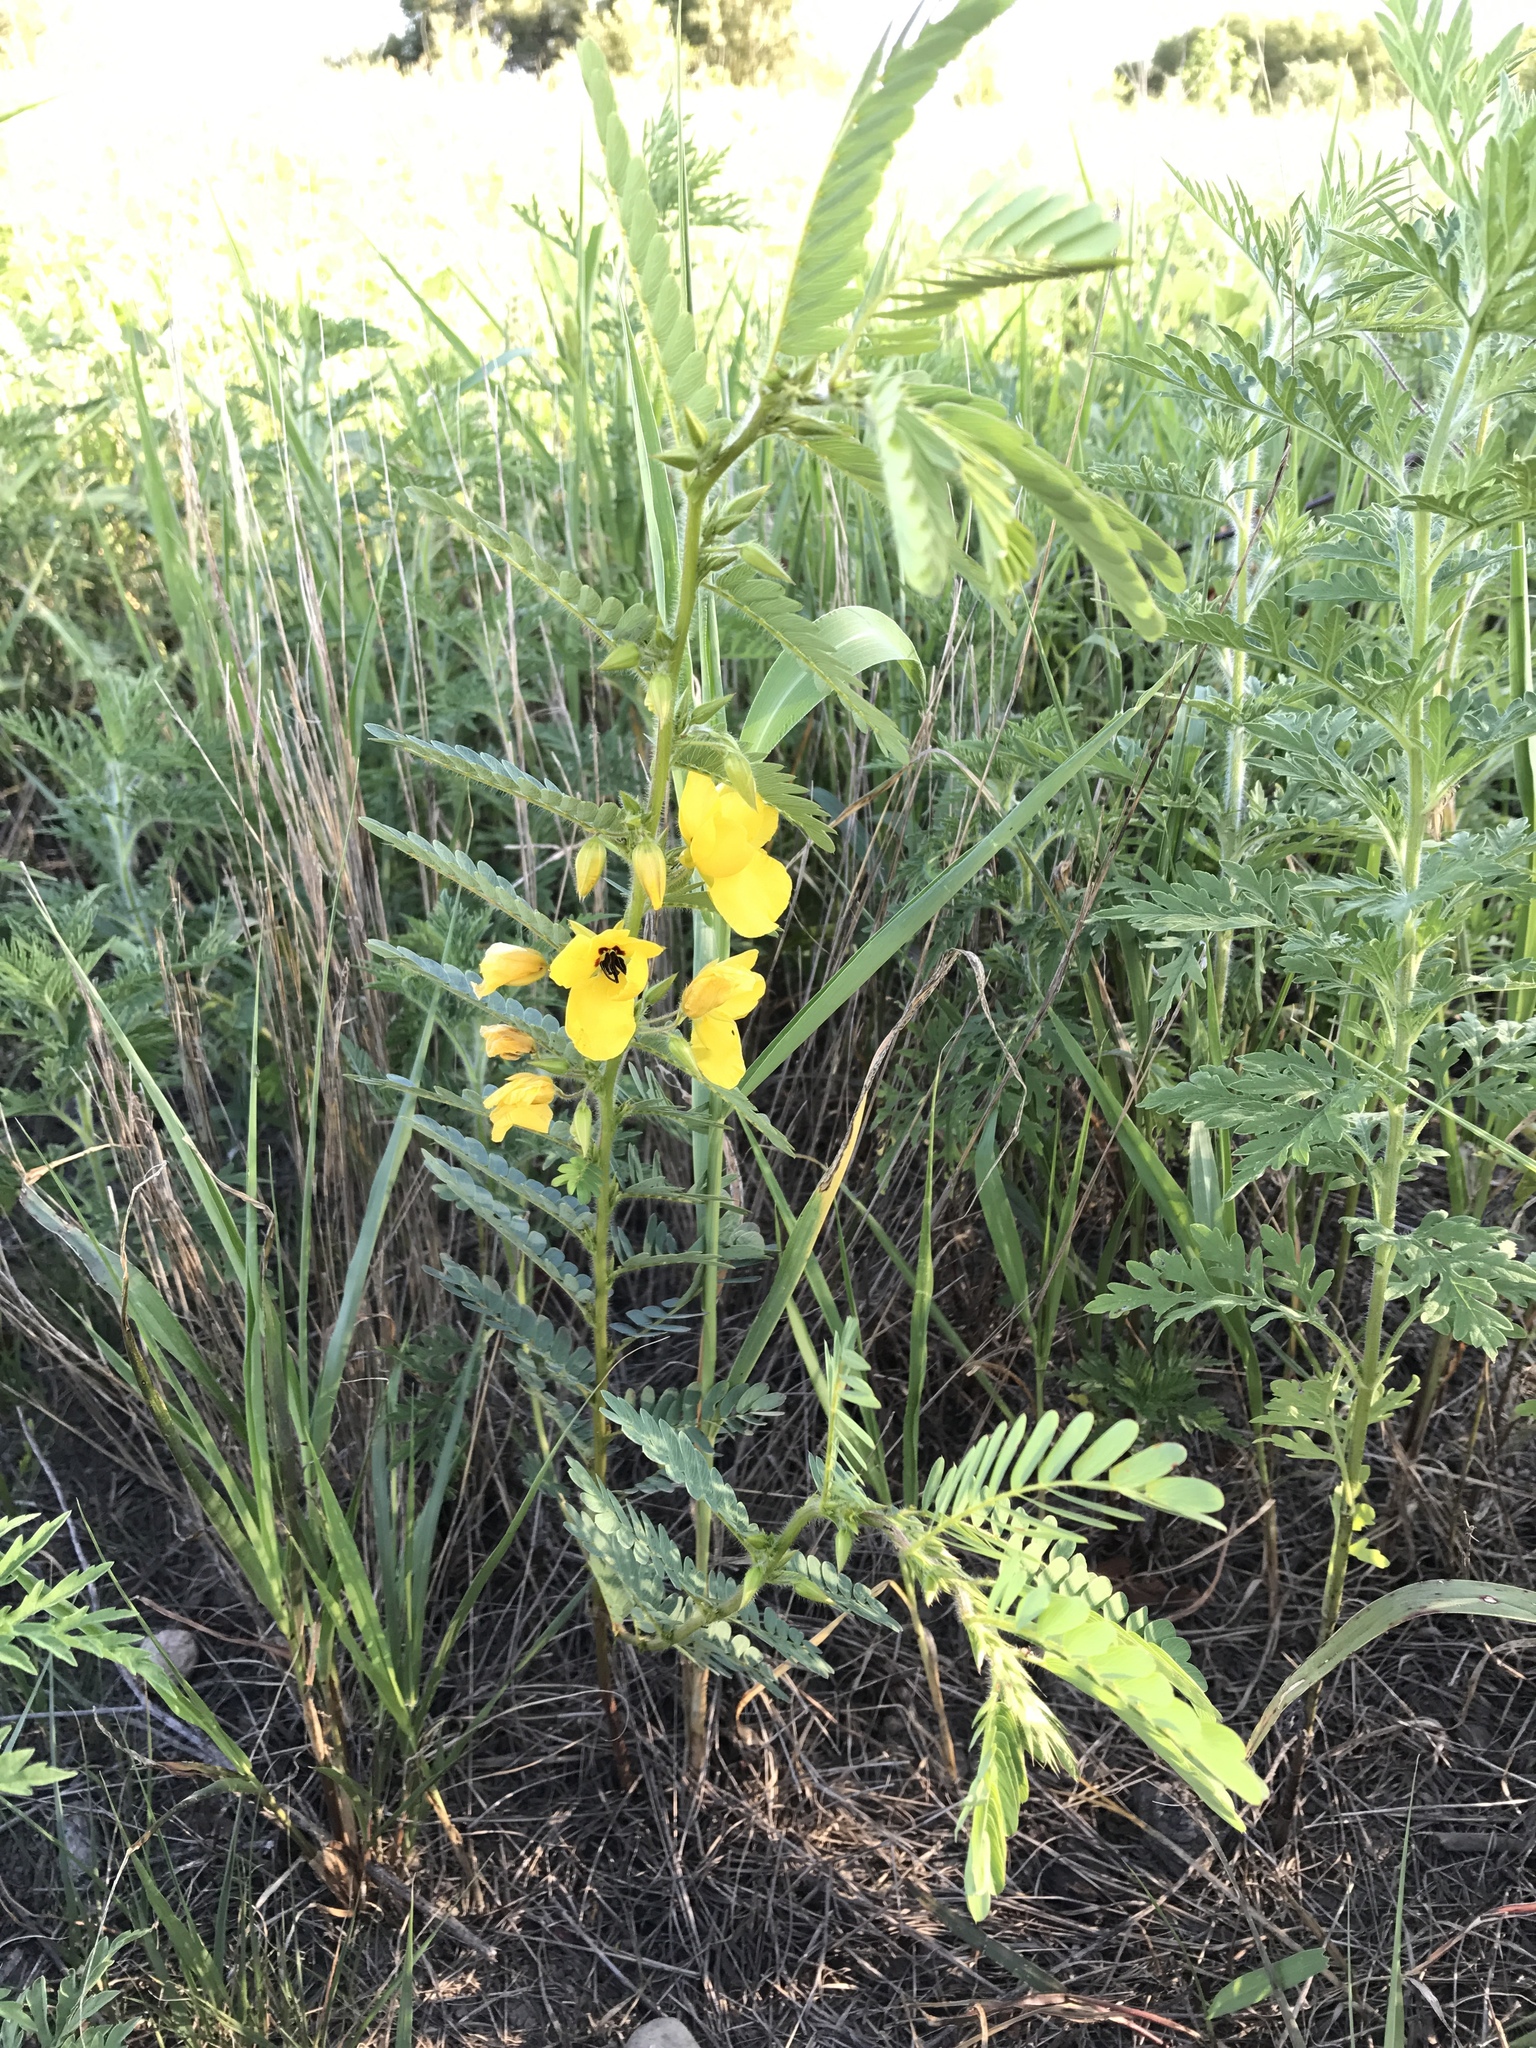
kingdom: Plantae
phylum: Tracheophyta
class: Magnoliopsida
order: Fabales
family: Fabaceae
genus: Chamaecrista
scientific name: Chamaecrista fasciculata
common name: Golden cassia
